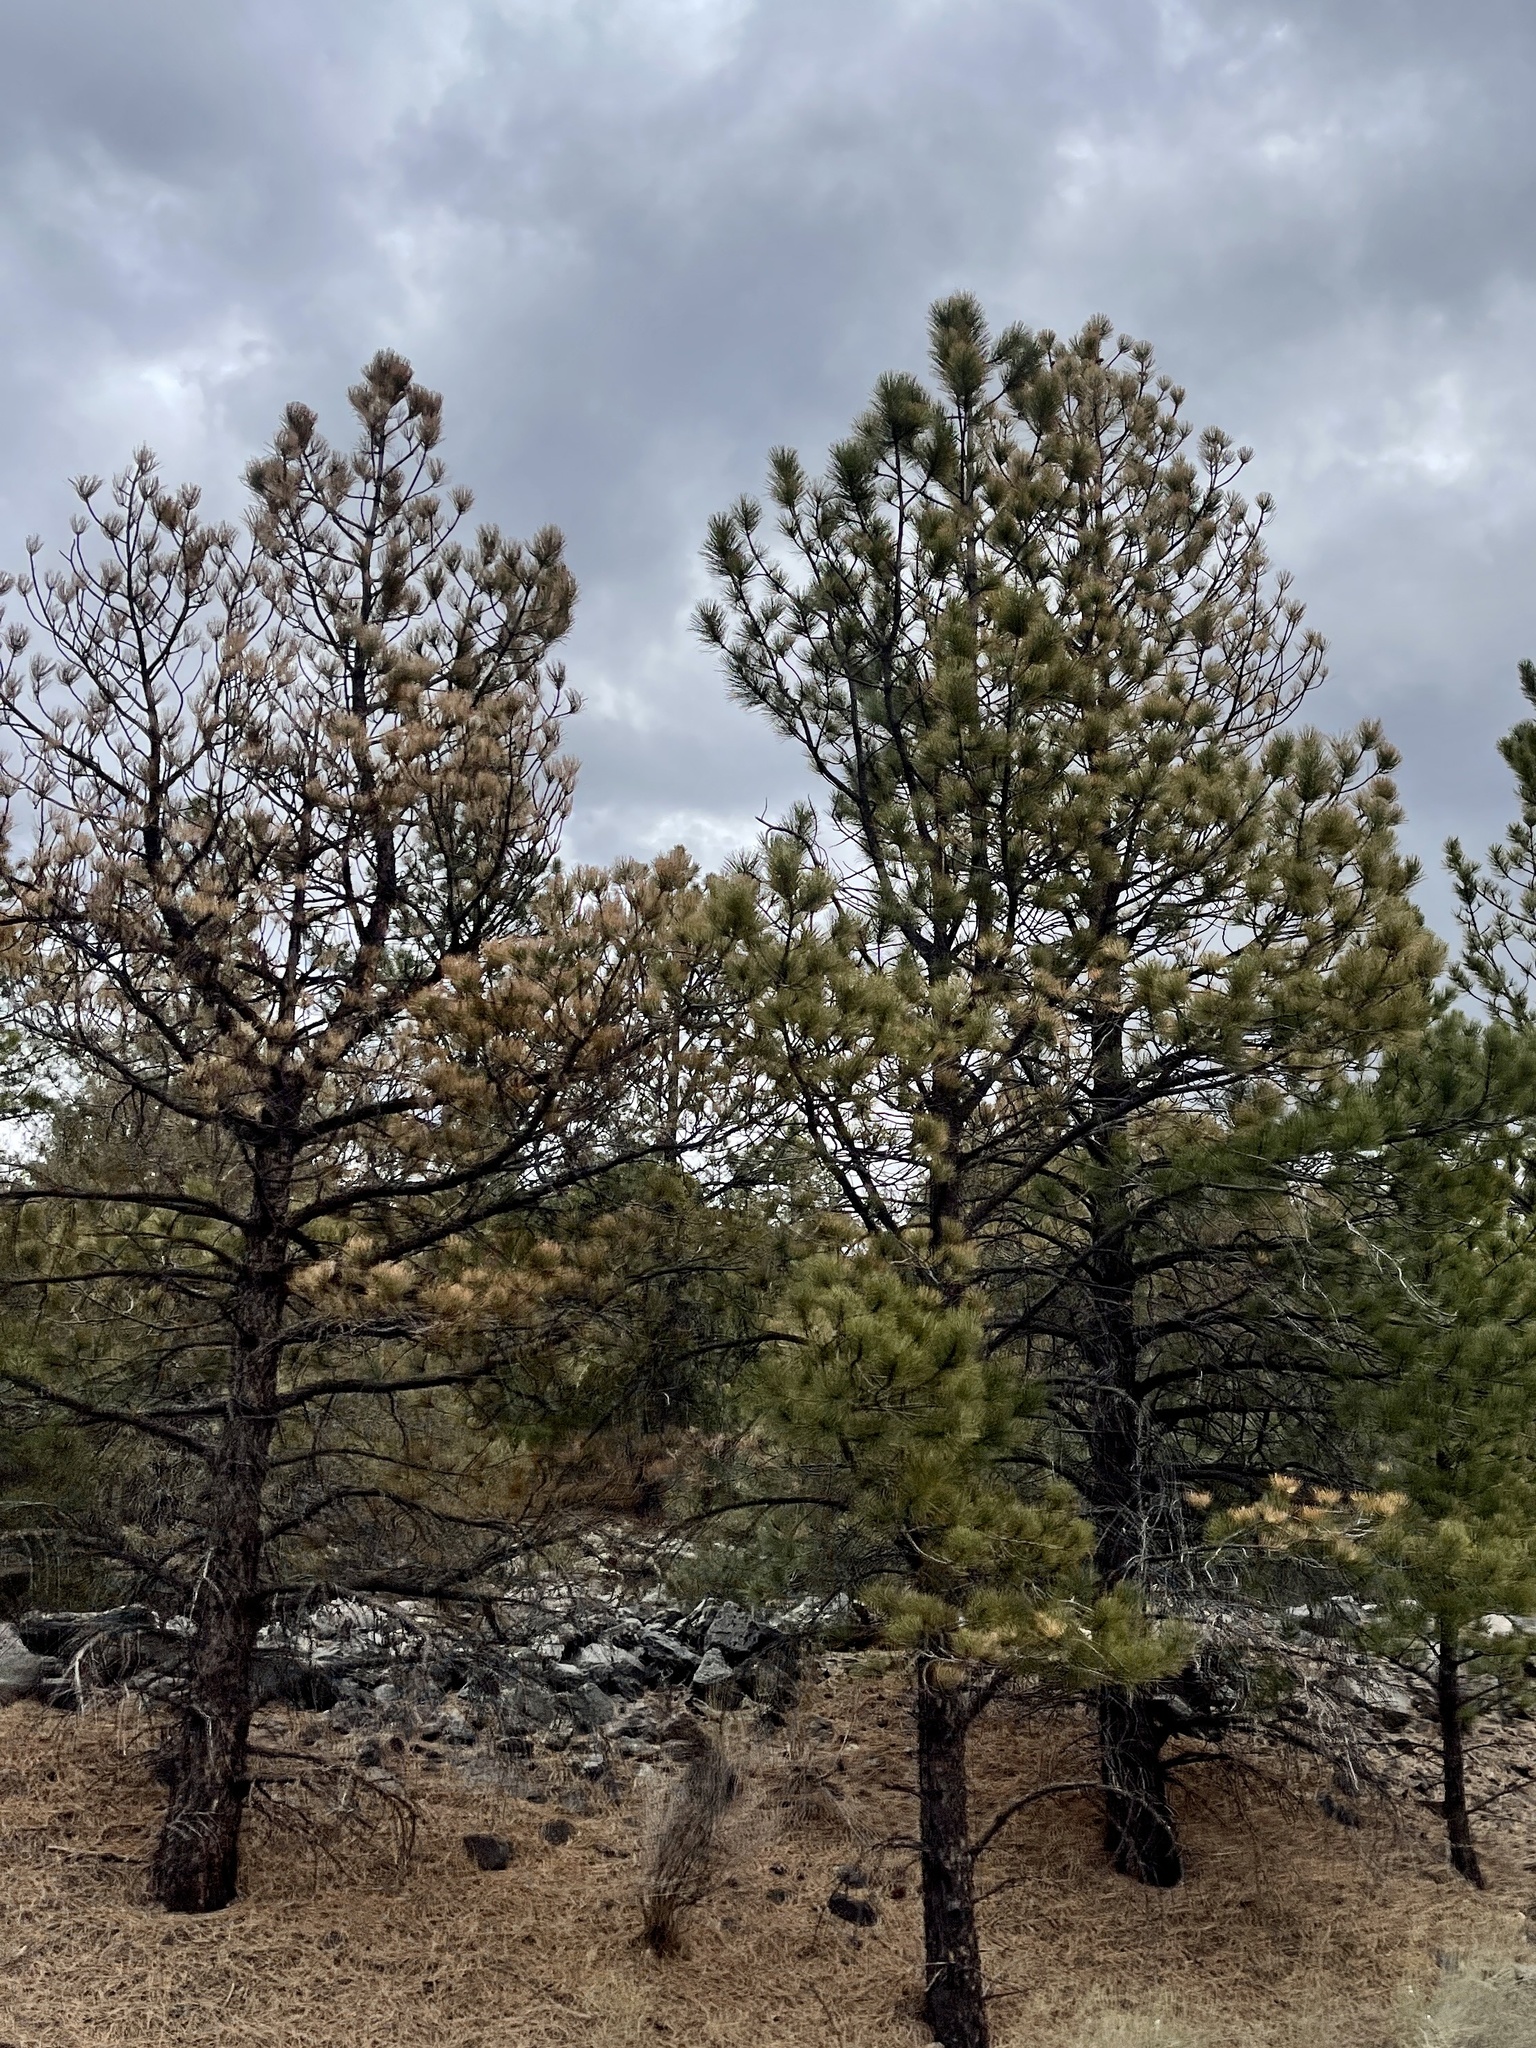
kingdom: Plantae
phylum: Tracheophyta
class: Pinopsida
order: Pinales
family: Pinaceae
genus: Pinus
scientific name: Pinus ponderosa
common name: Western yellow-pine
